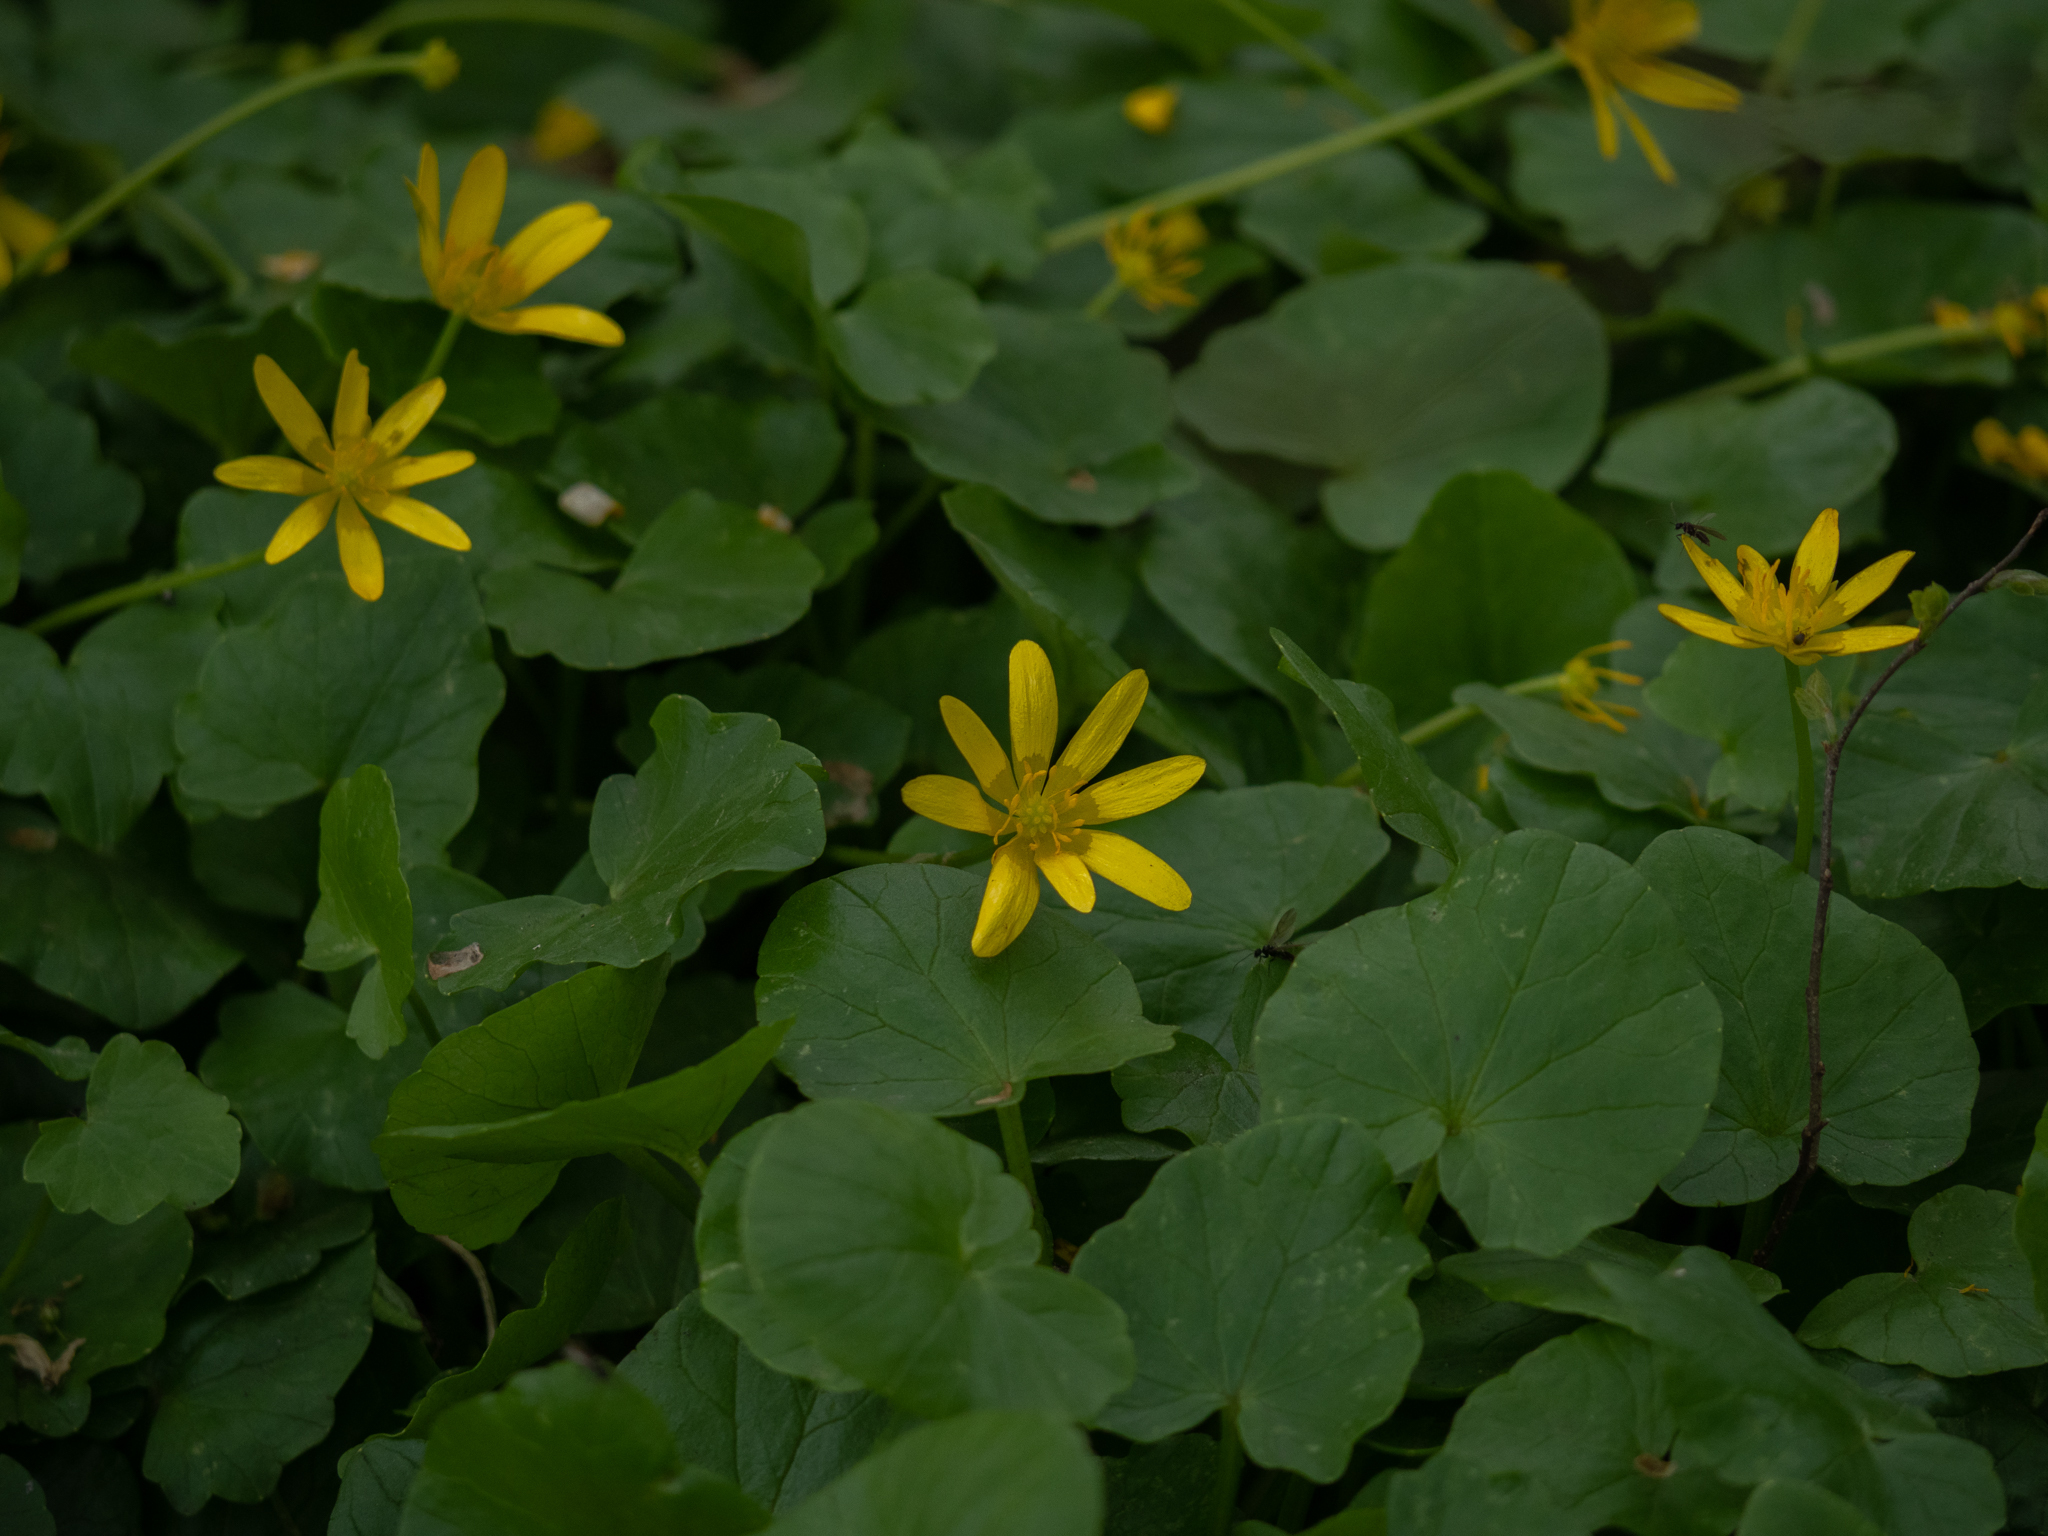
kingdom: Plantae
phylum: Tracheophyta
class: Magnoliopsida
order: Ranunculales
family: Ranunculaceae
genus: Ficaria
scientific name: Ficaria verna
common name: Lesser celandine
